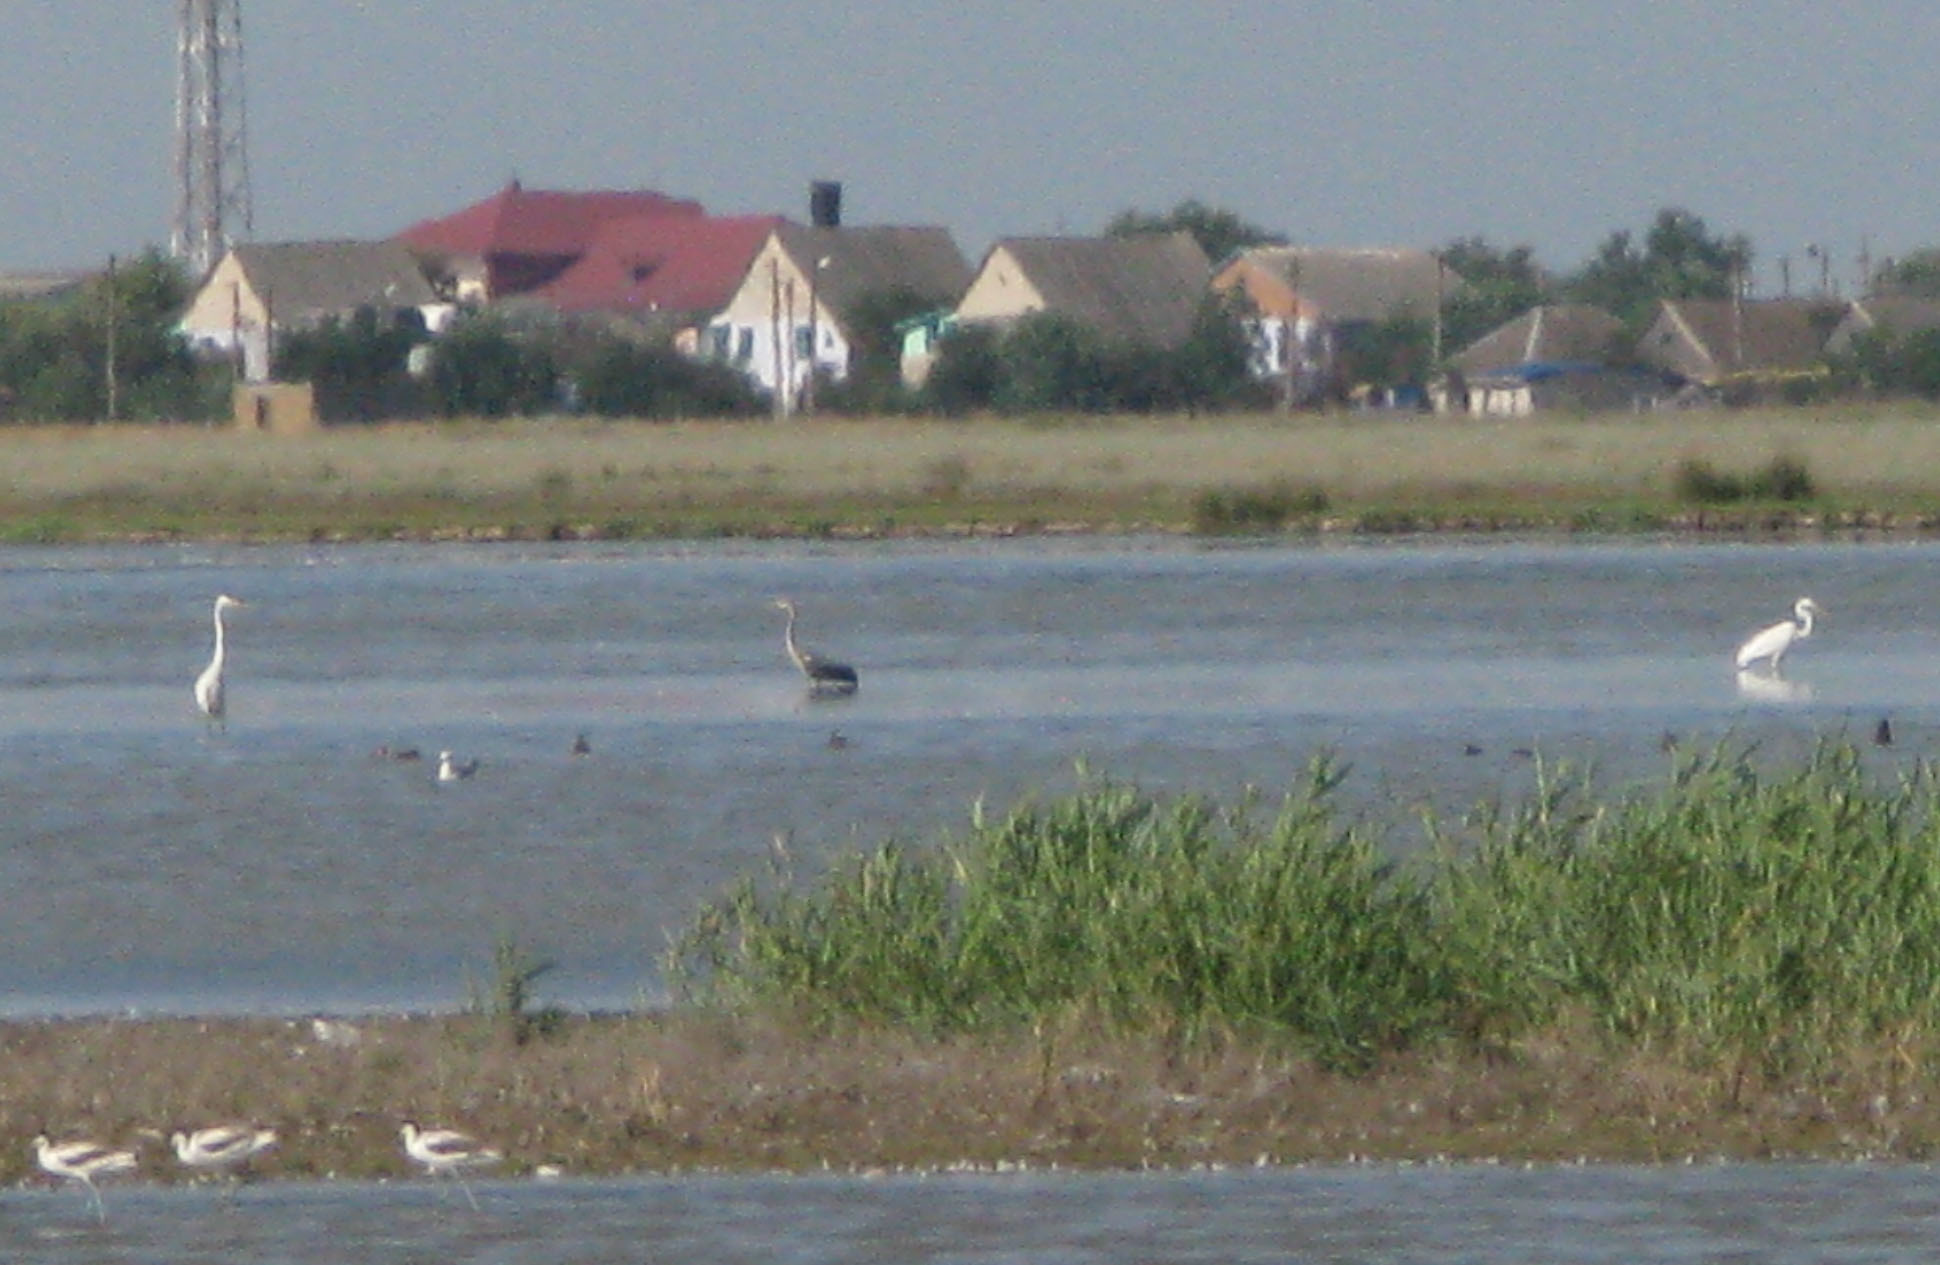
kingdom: Animalia
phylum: Chordata
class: Aves
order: Pelecaniformes
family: Ardeidae
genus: Ardea
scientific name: Ardea cinerea
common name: Grey heron
